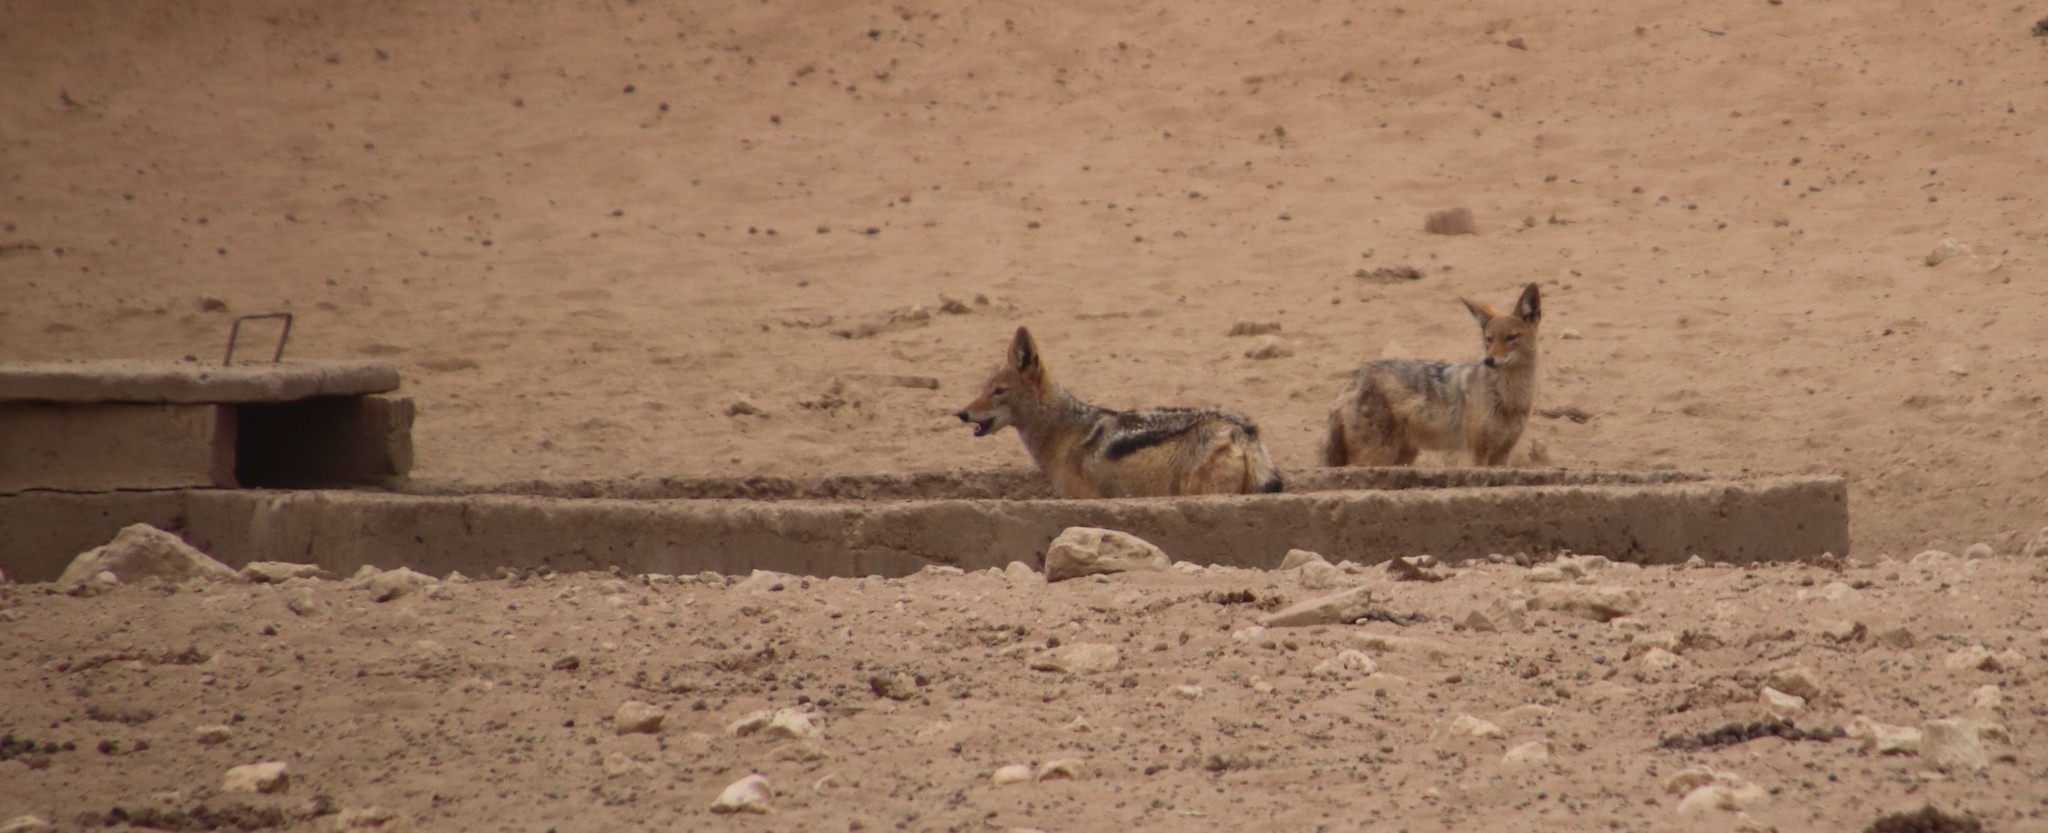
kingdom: Animalia
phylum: Chordata
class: Mammalia
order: Carnivora
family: Canidae
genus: Lupulella
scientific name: Lupulella
